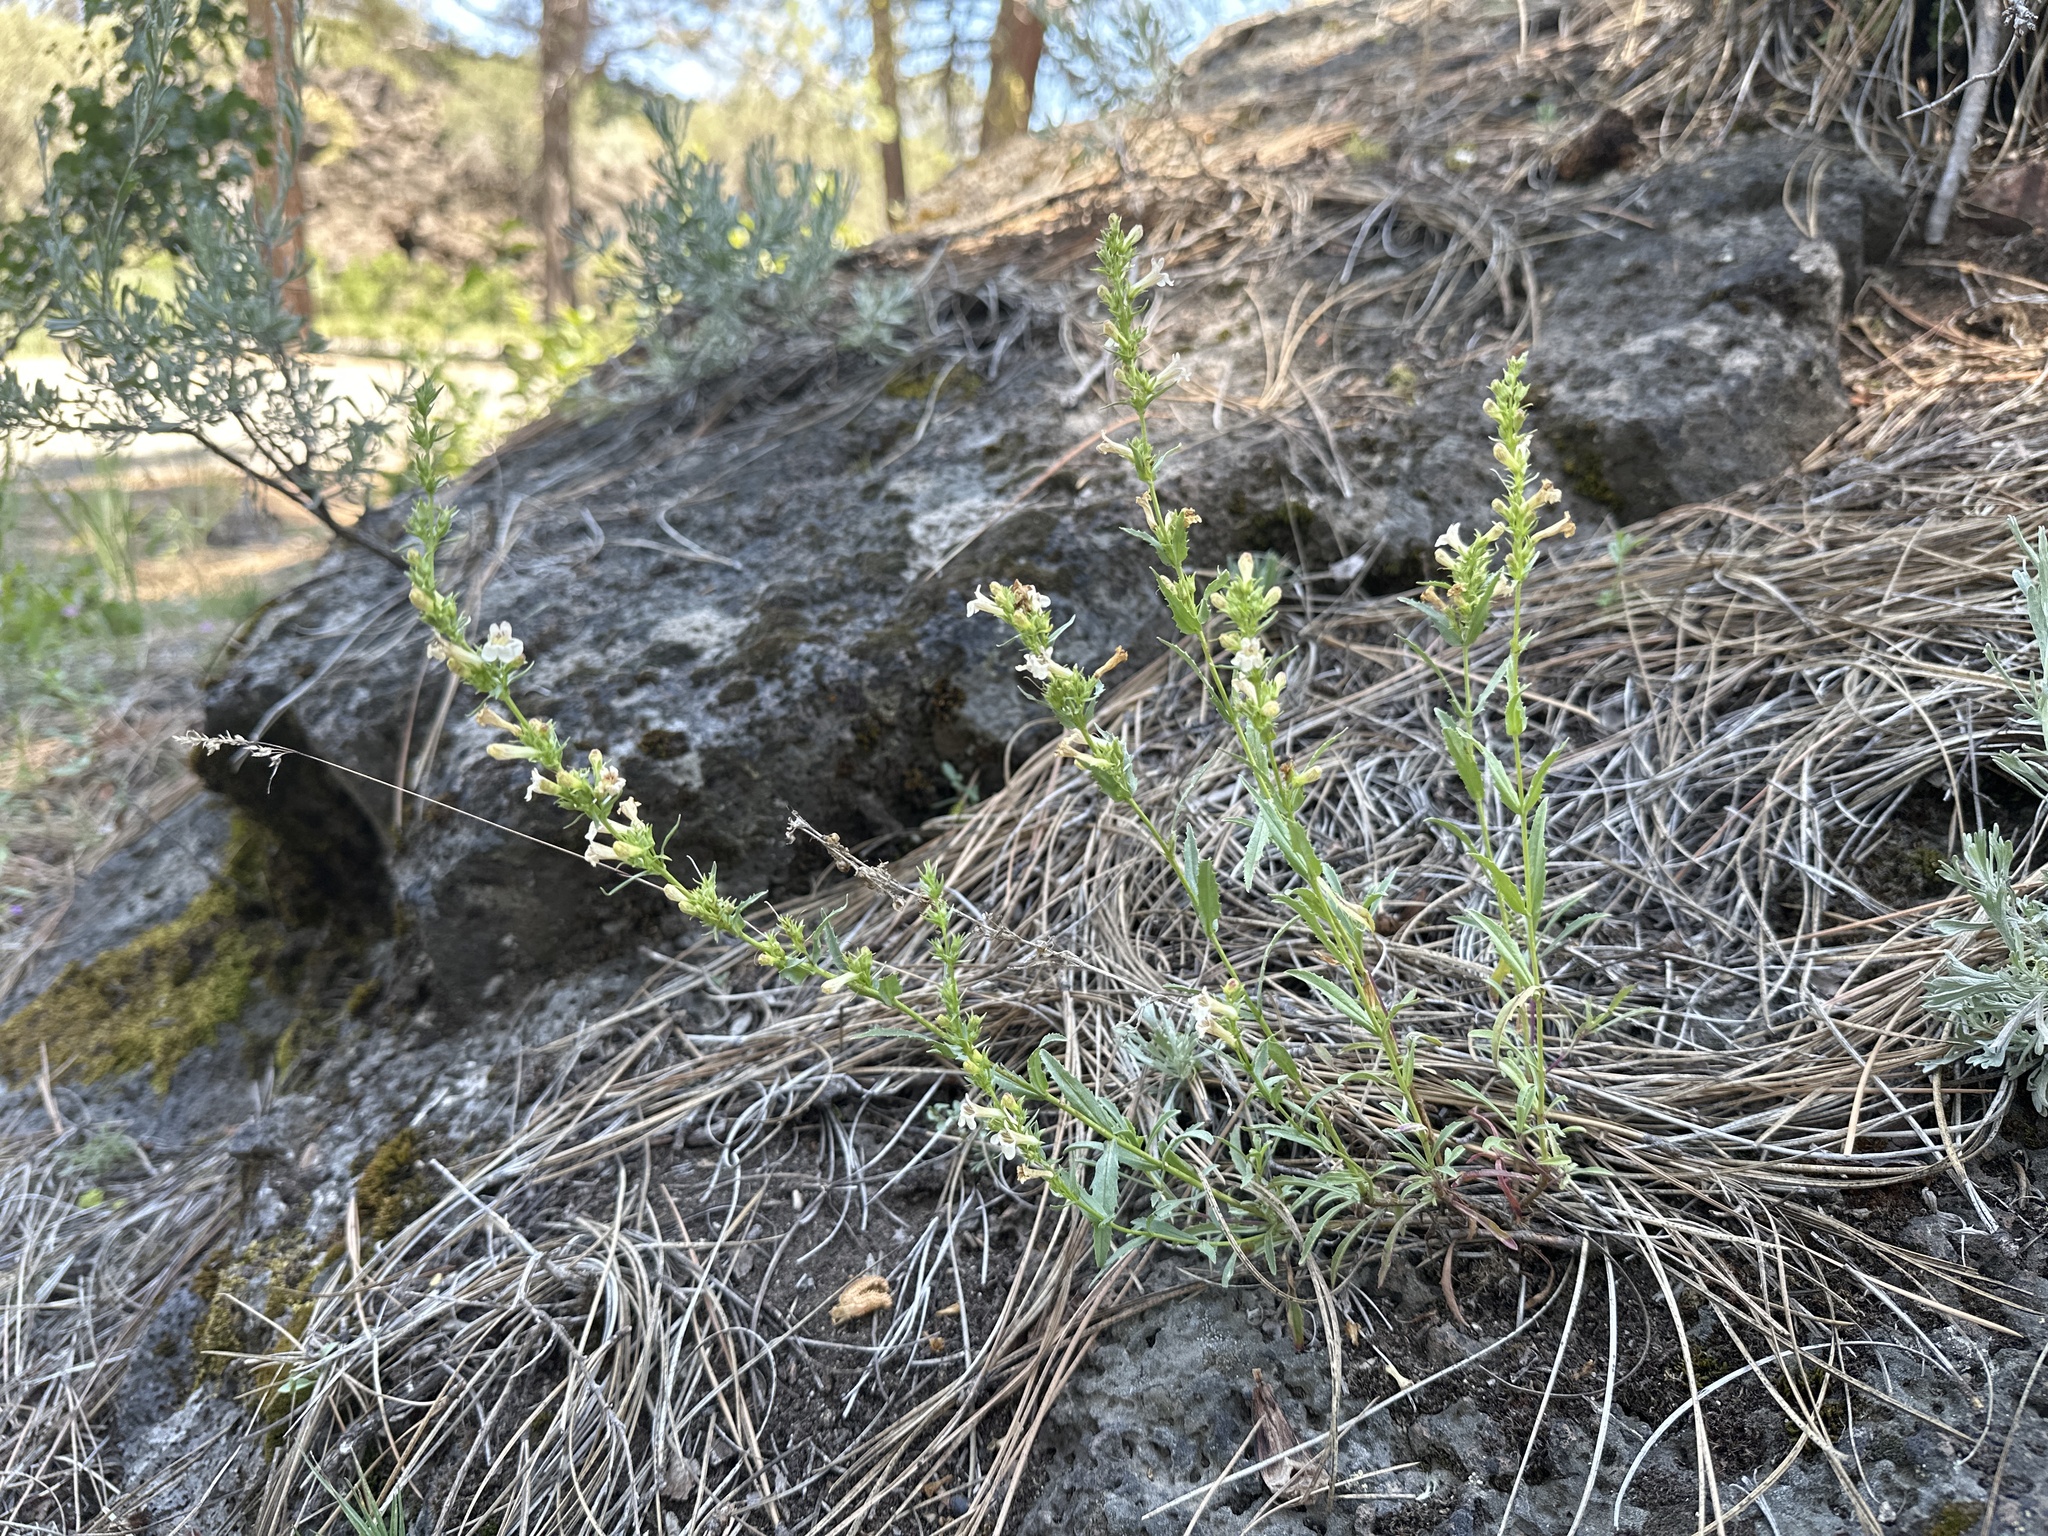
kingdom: Plantae
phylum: Tracheophyta
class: Magnoliopsida
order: Lamiales
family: Plantaginaceae
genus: Penstemon
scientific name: Penstemon deustus
